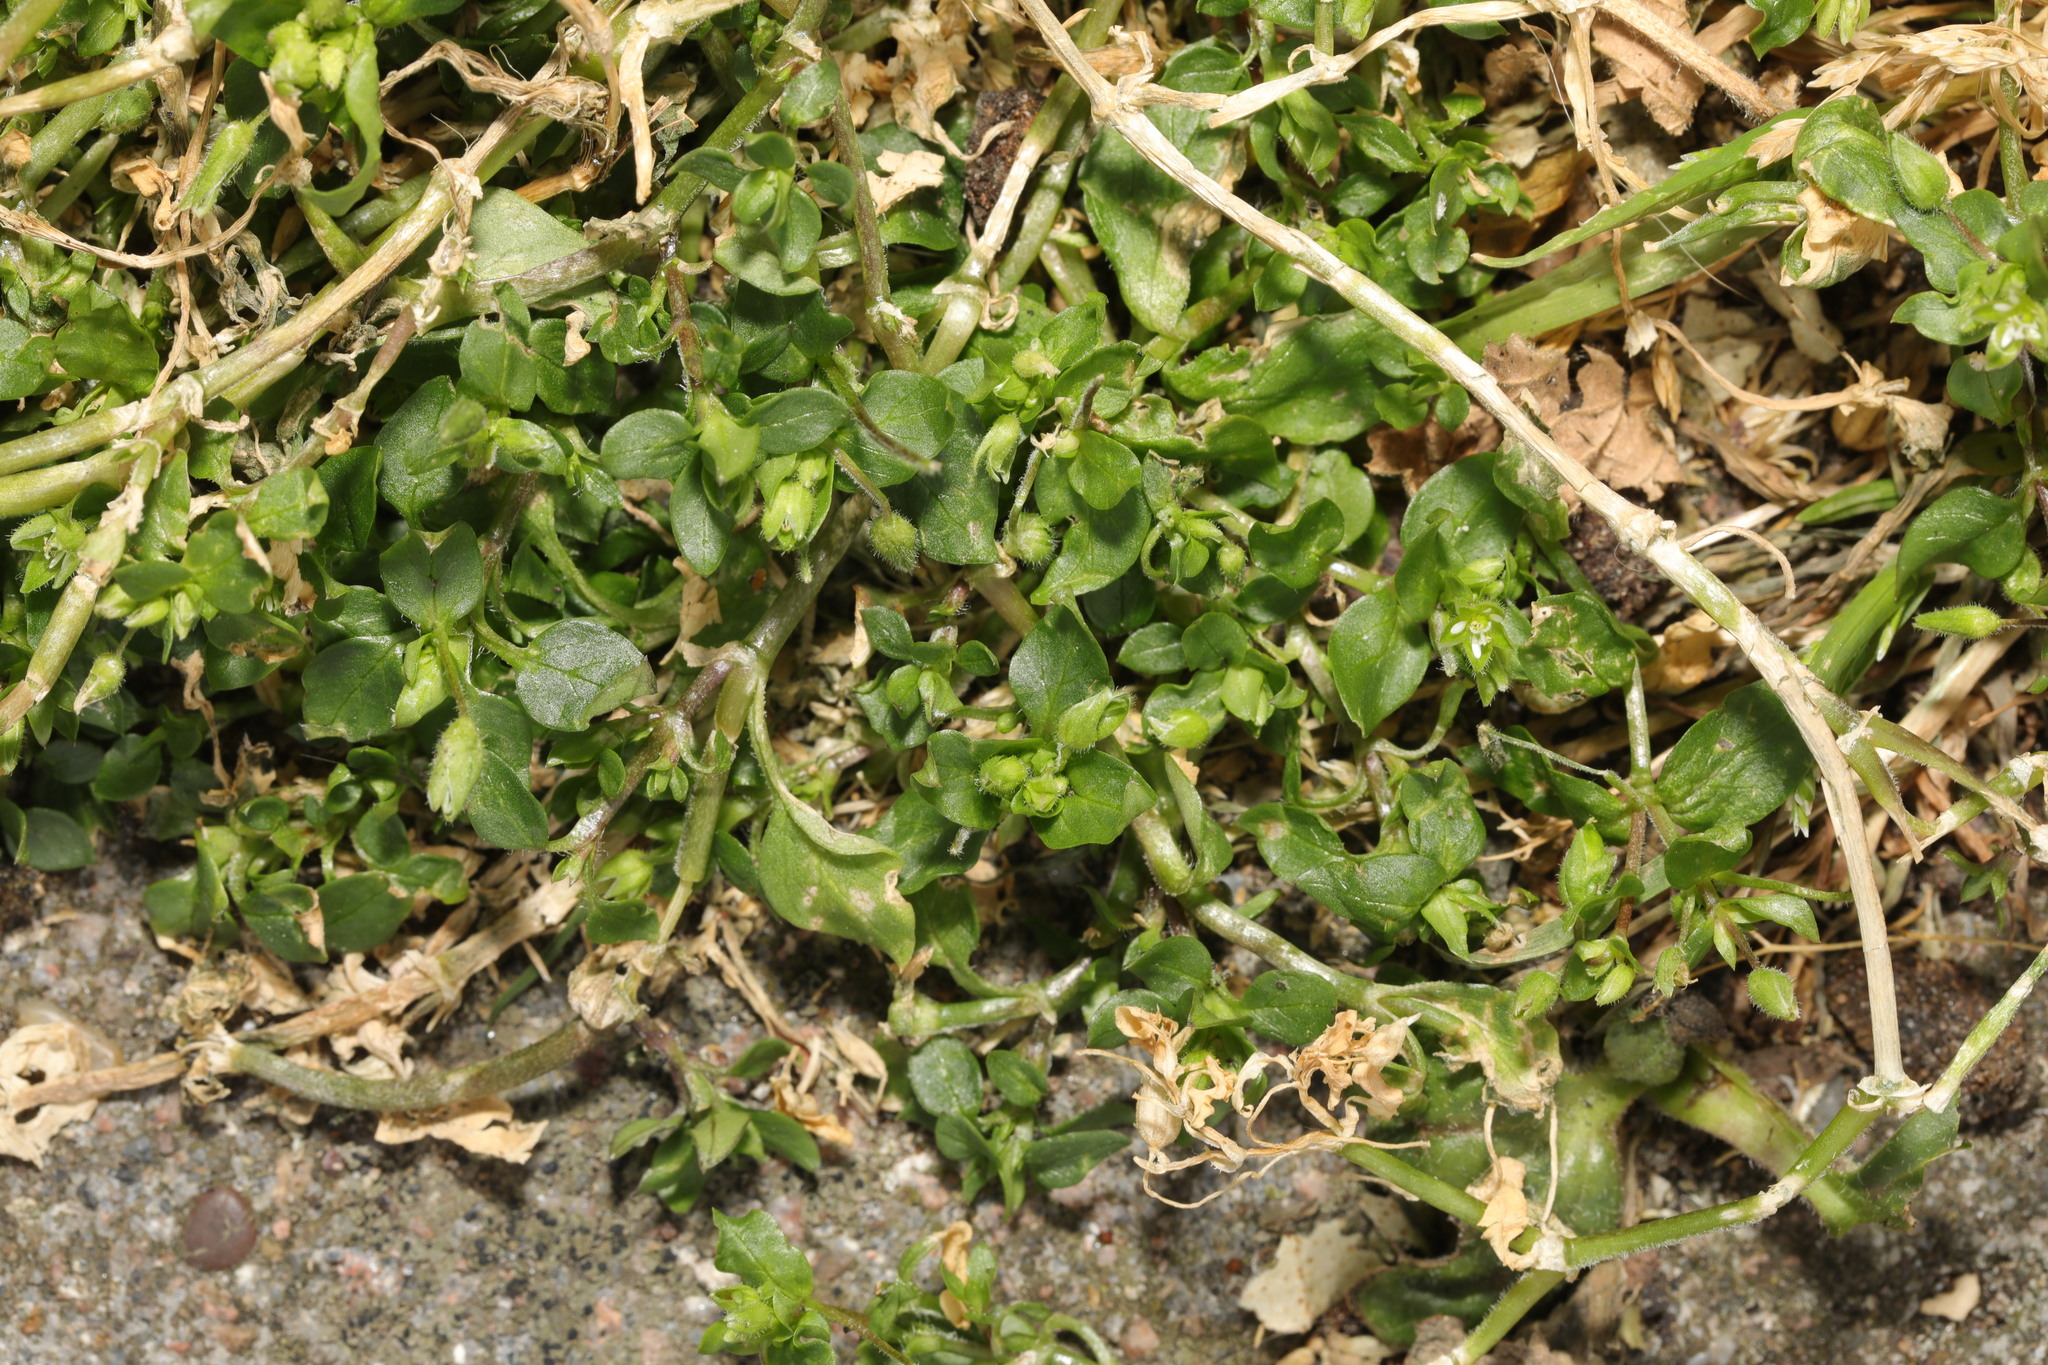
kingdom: Plantae
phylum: Tracheophyta
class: Magnoliopsida
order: Caryophyllales
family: Caryophyllaceae
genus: Stellaria
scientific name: Stellaria media
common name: Common chickweed
